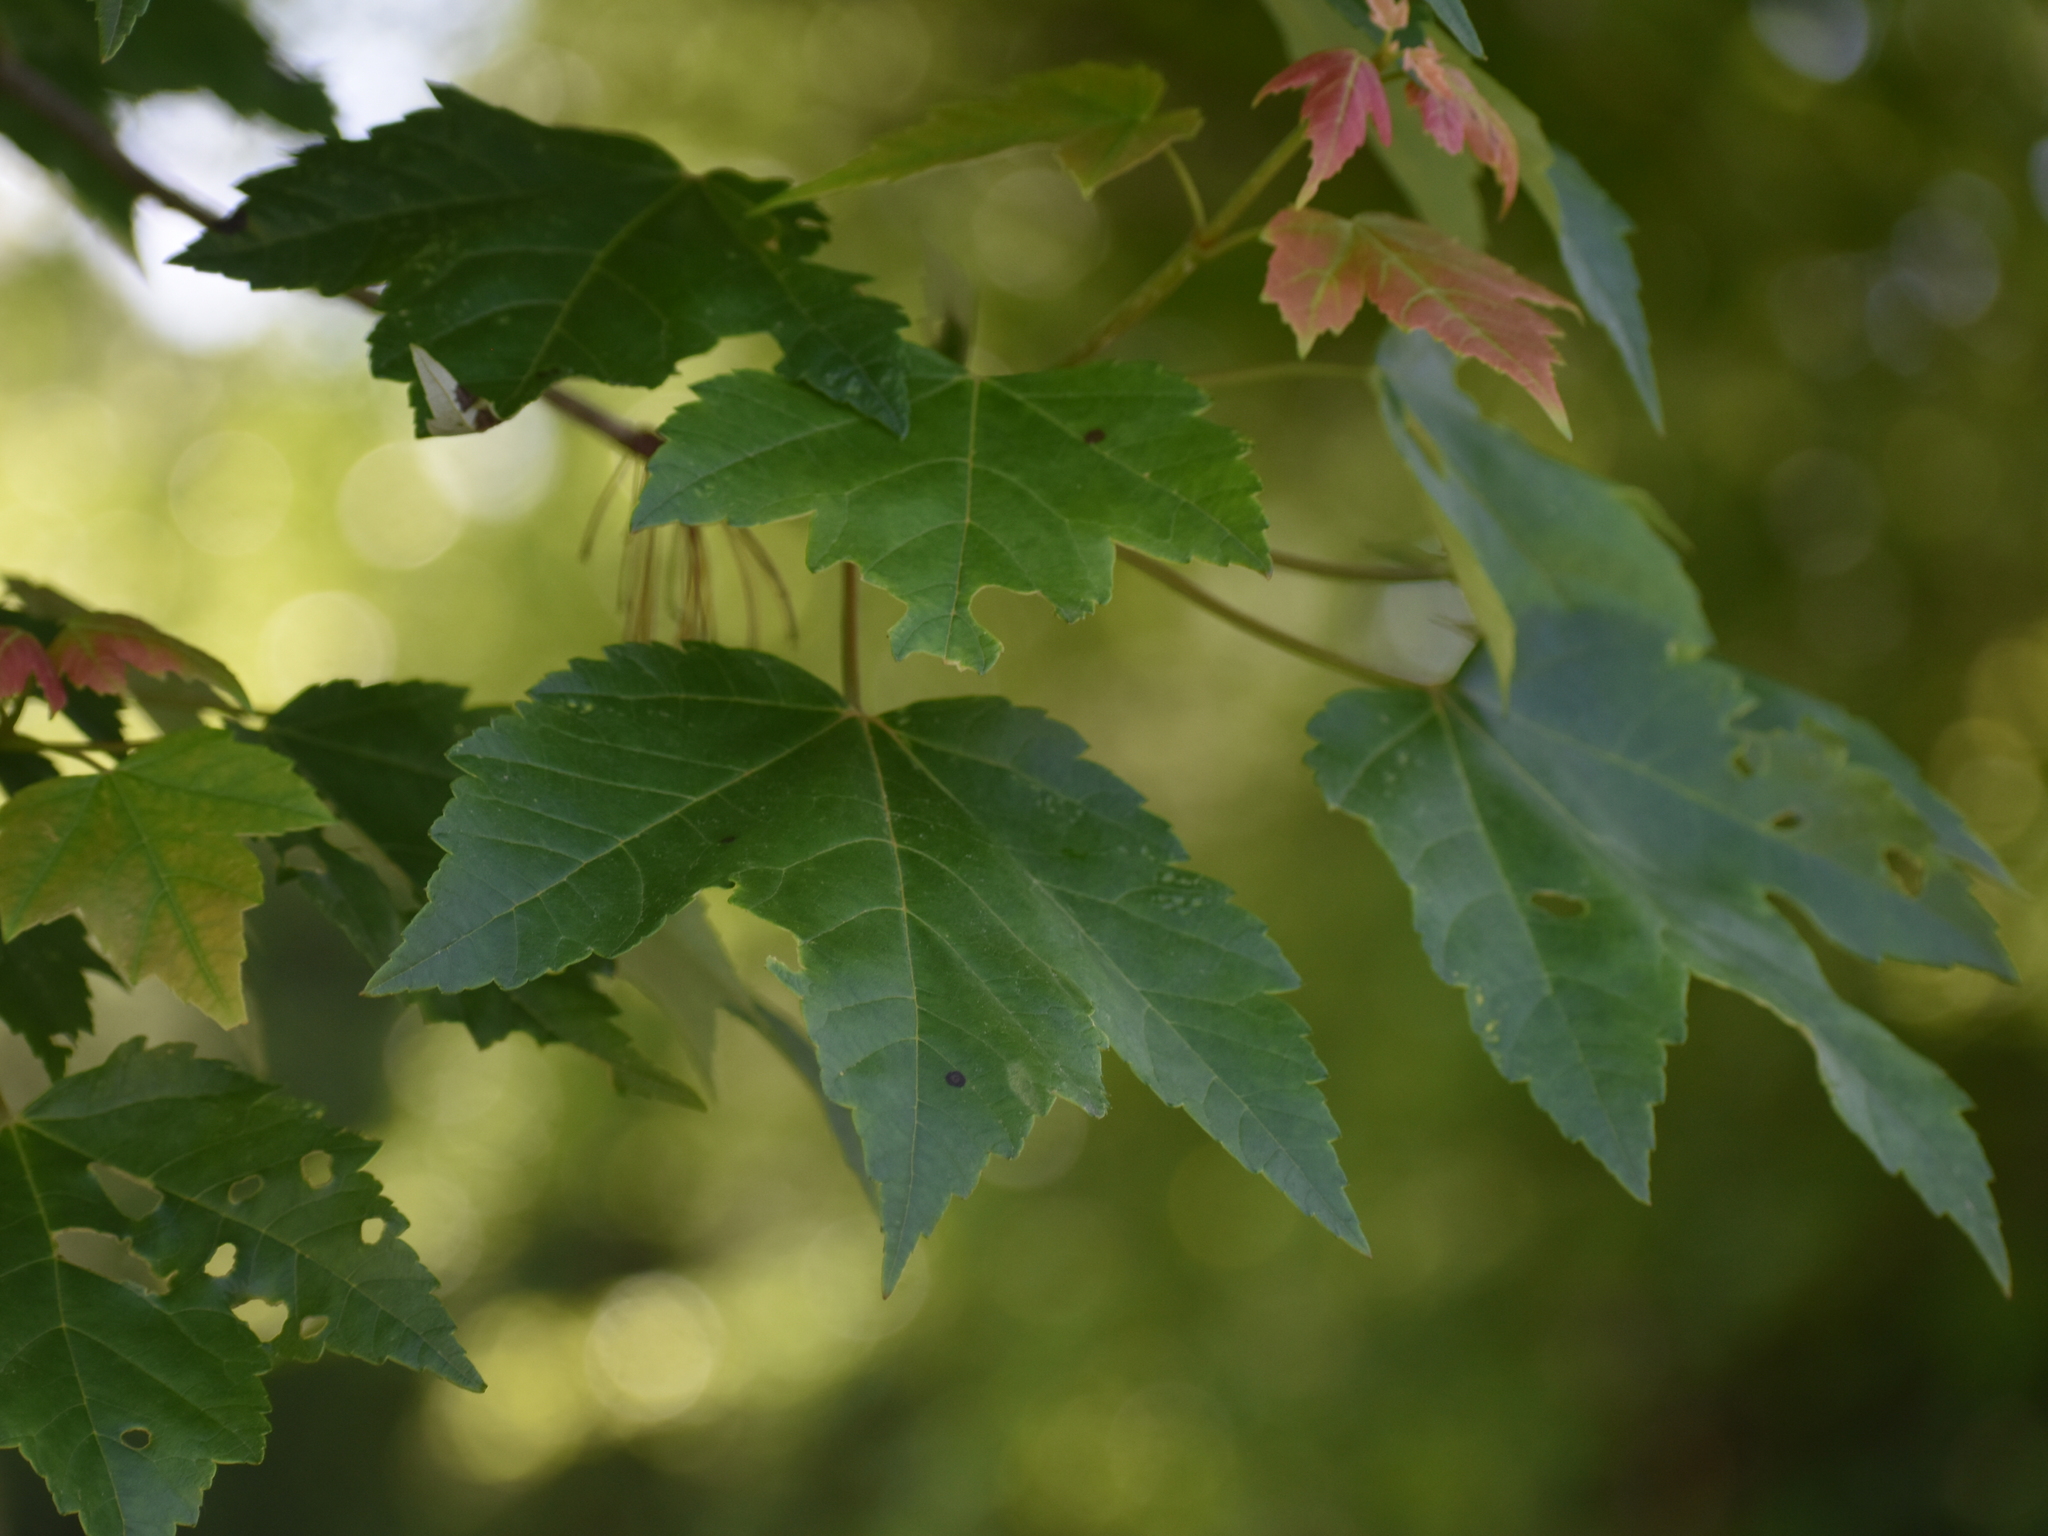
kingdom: Plantae
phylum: Tracheophyta
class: Magnoliopsida
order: Sapindales
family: Sapindaceae
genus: Acer
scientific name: Acer rubrum
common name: Red maple
